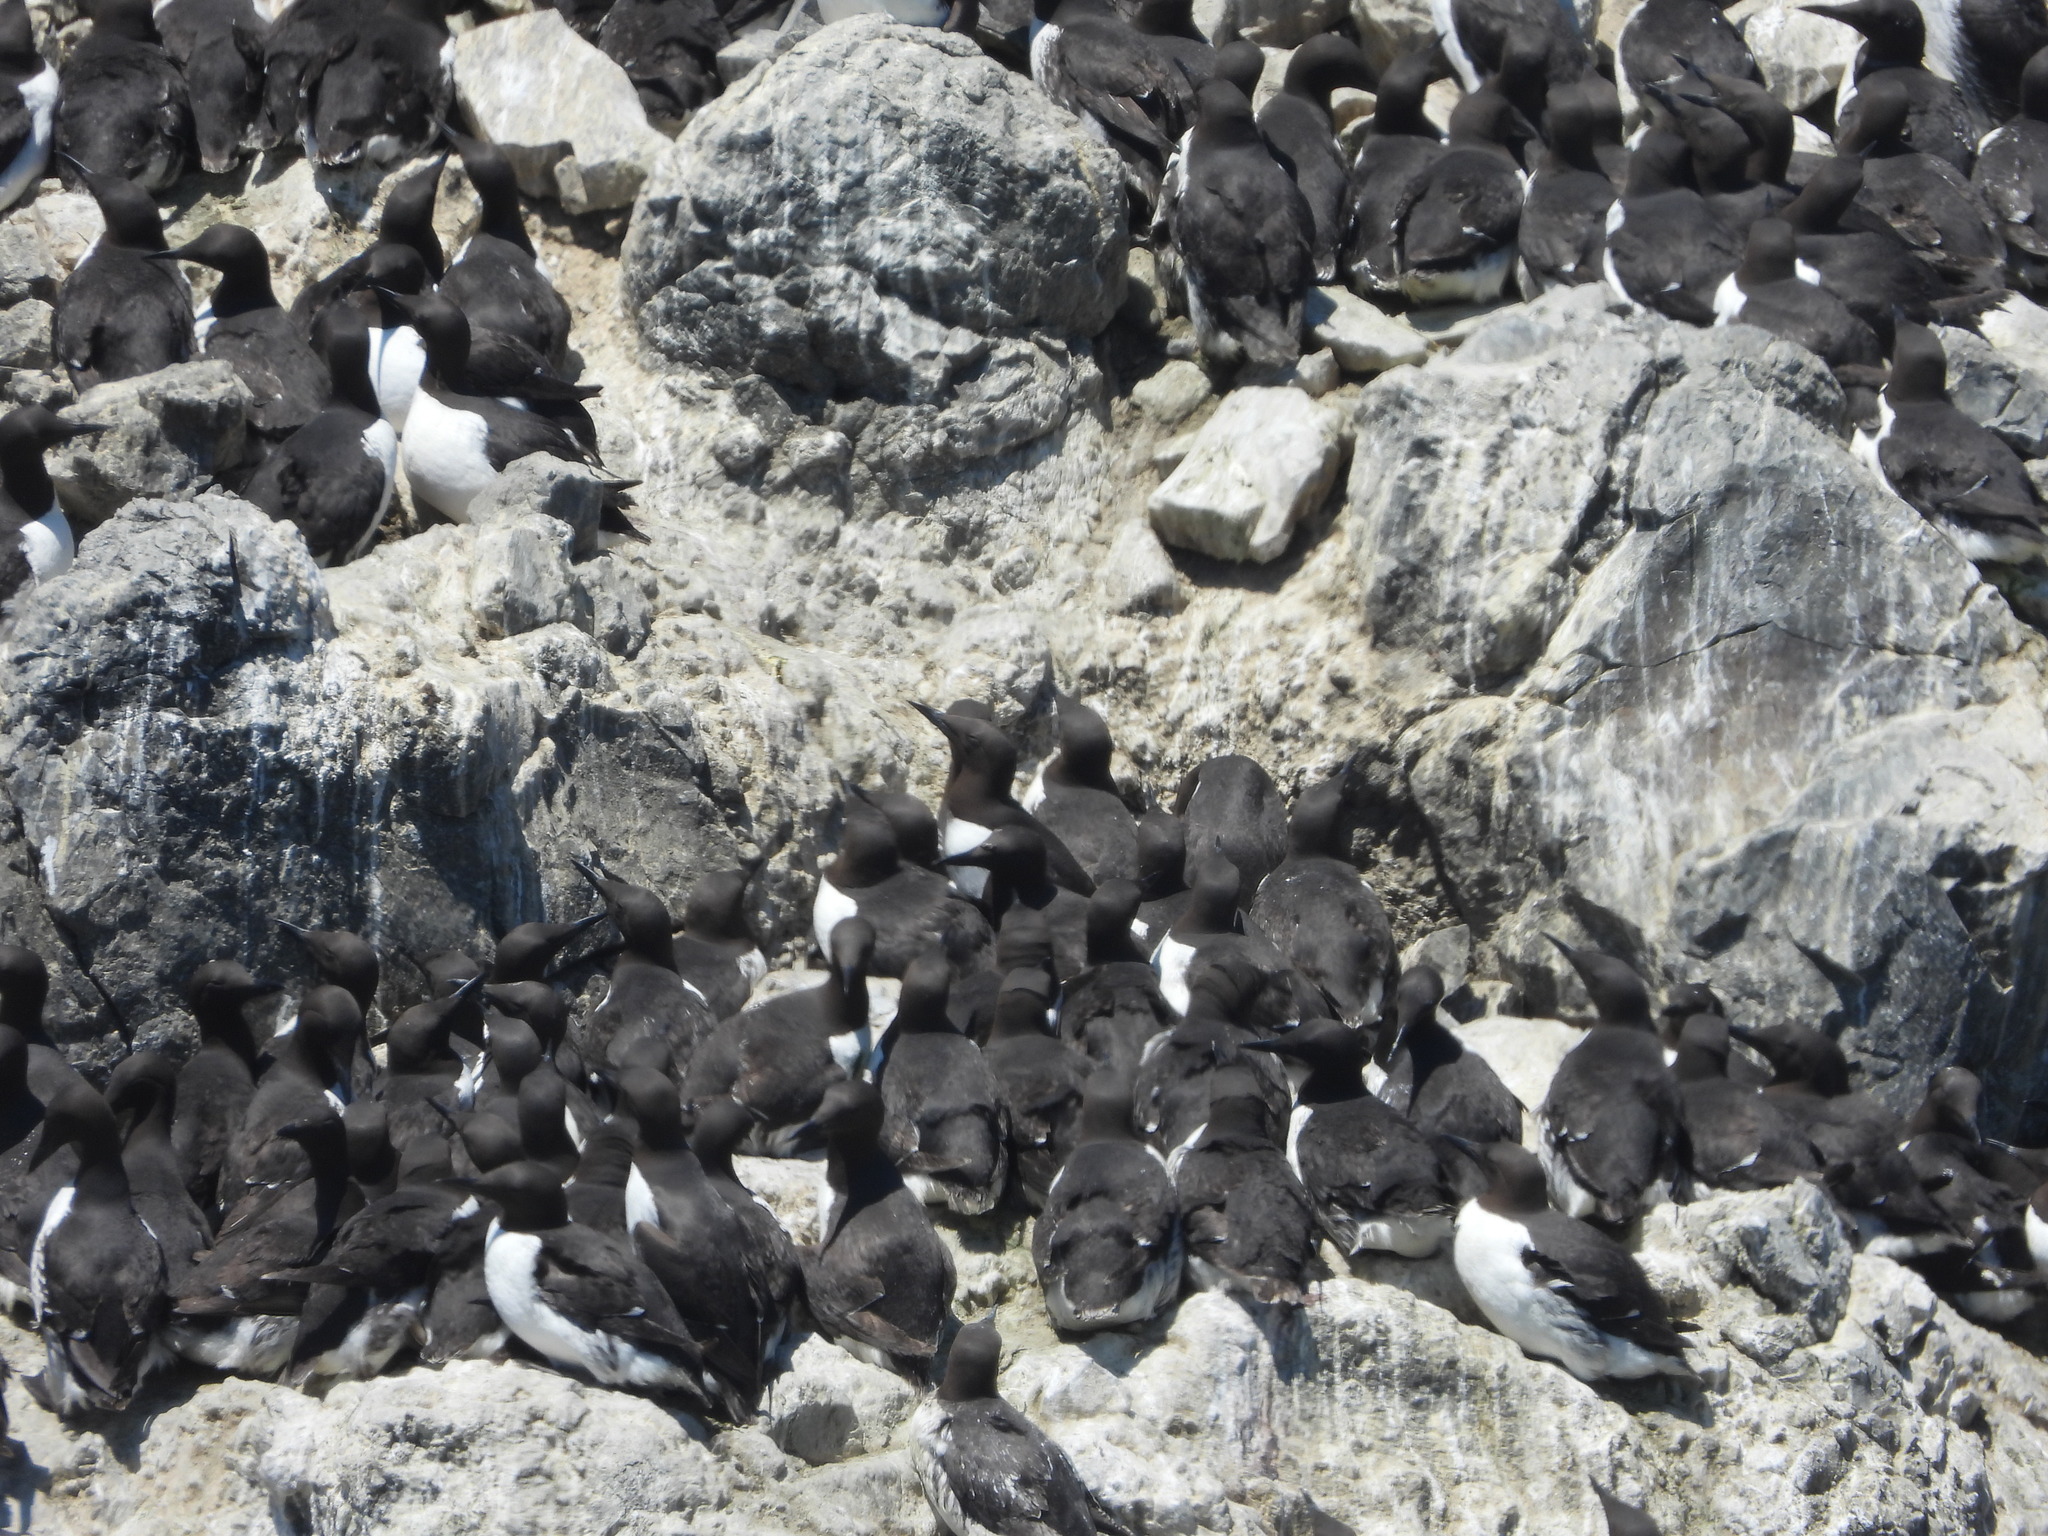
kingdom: Animalia
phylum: Chordata
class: Aves
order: Charadriiformes
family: Alcidae
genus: Uria
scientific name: Uria aalge
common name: Common murre
